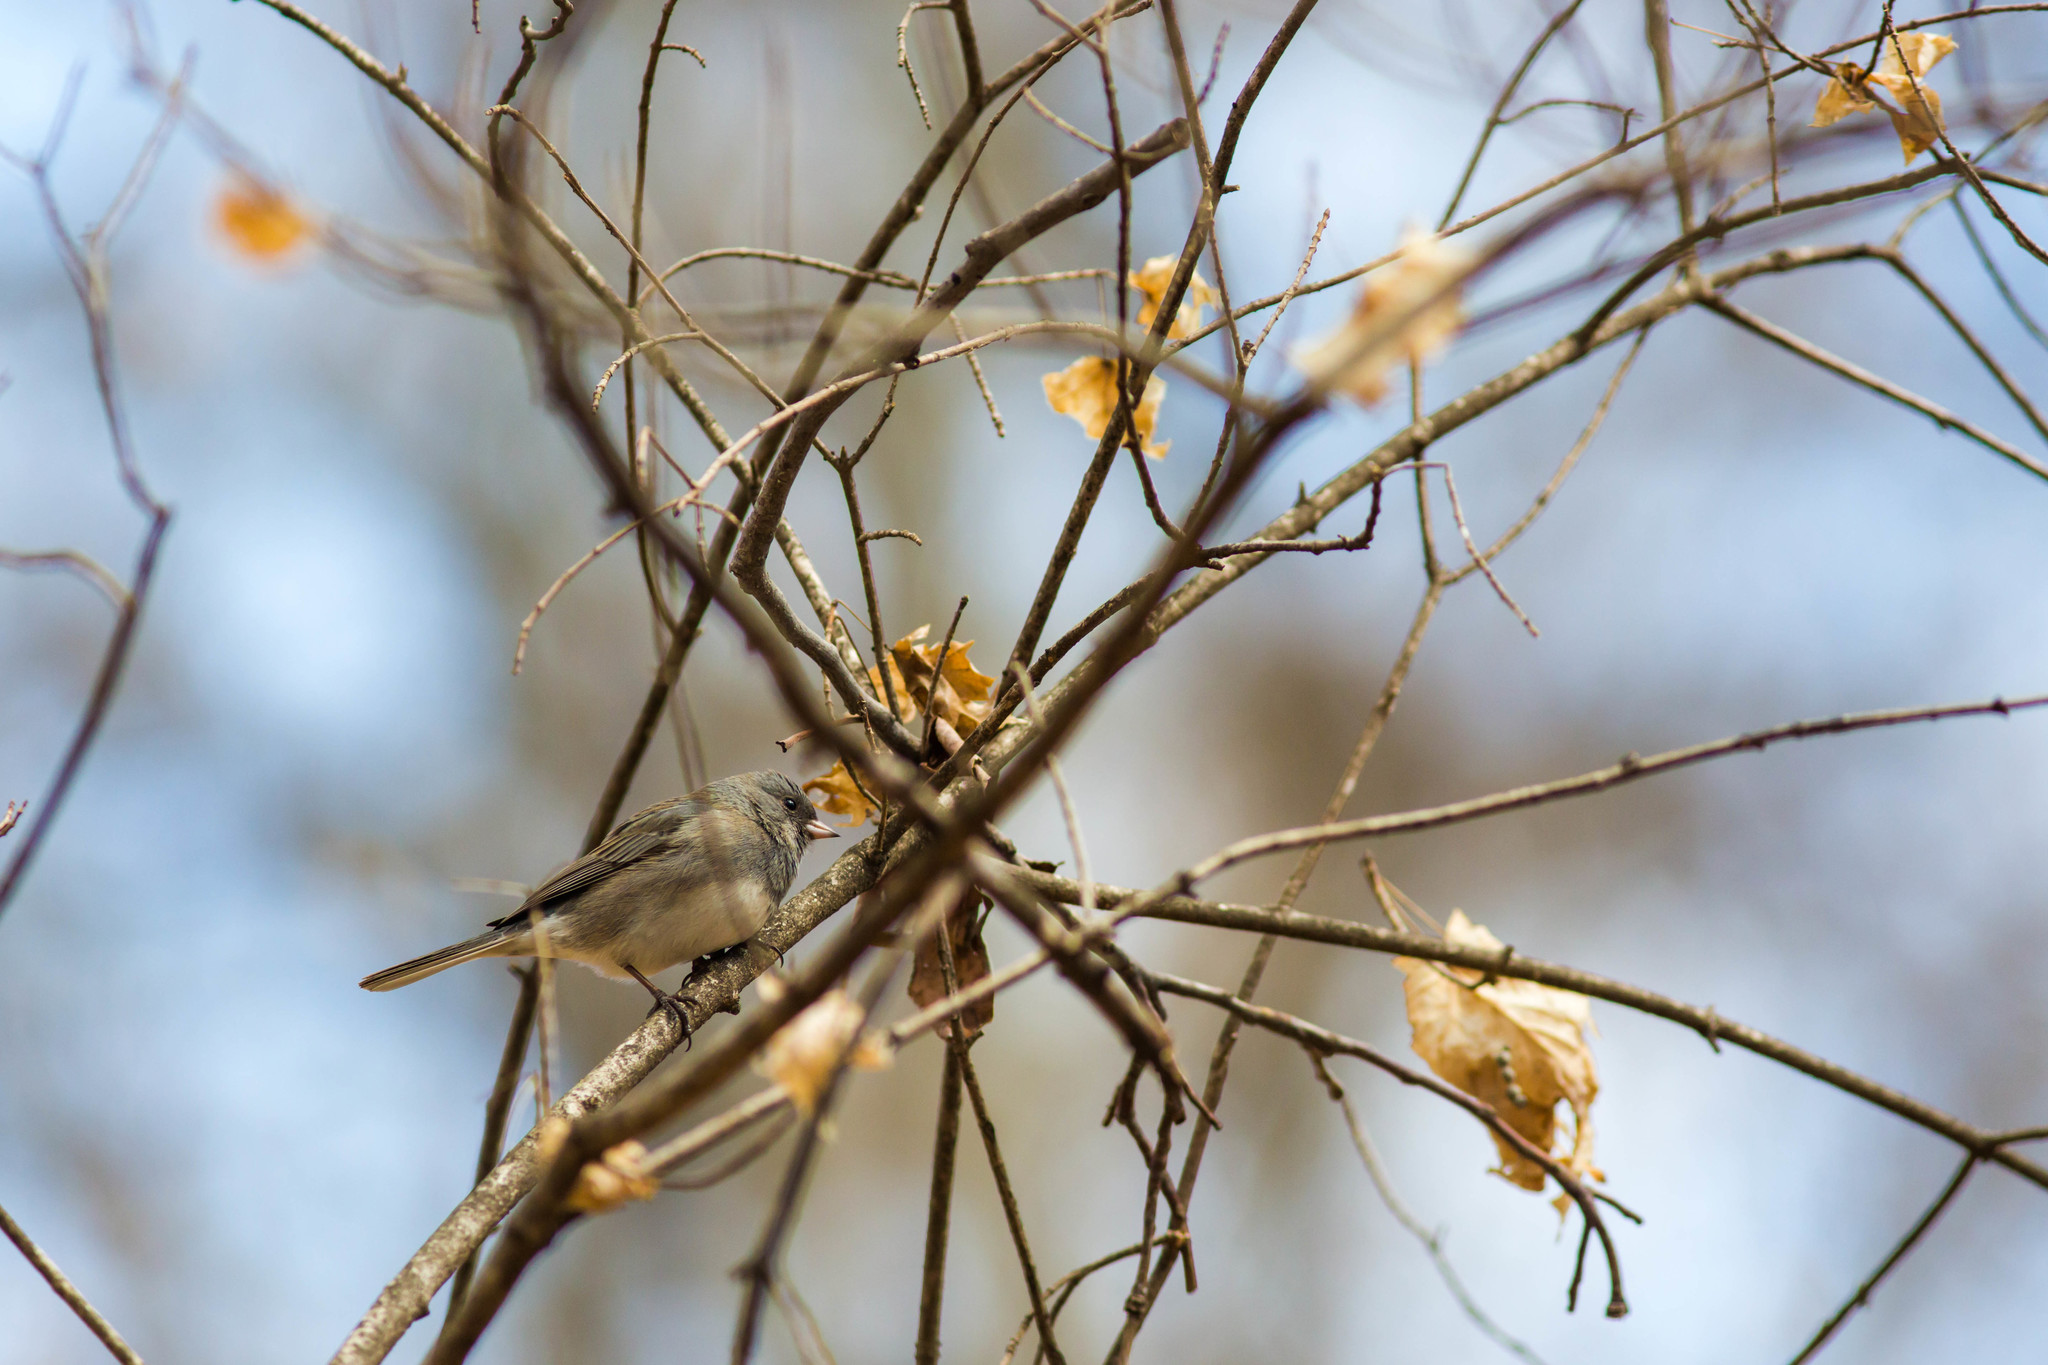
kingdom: Animalia
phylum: Chordata
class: Aves
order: Passeriformes
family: Passerellidae
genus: Junco
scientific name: Junco hyemalis
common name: Dark-eyed junco
